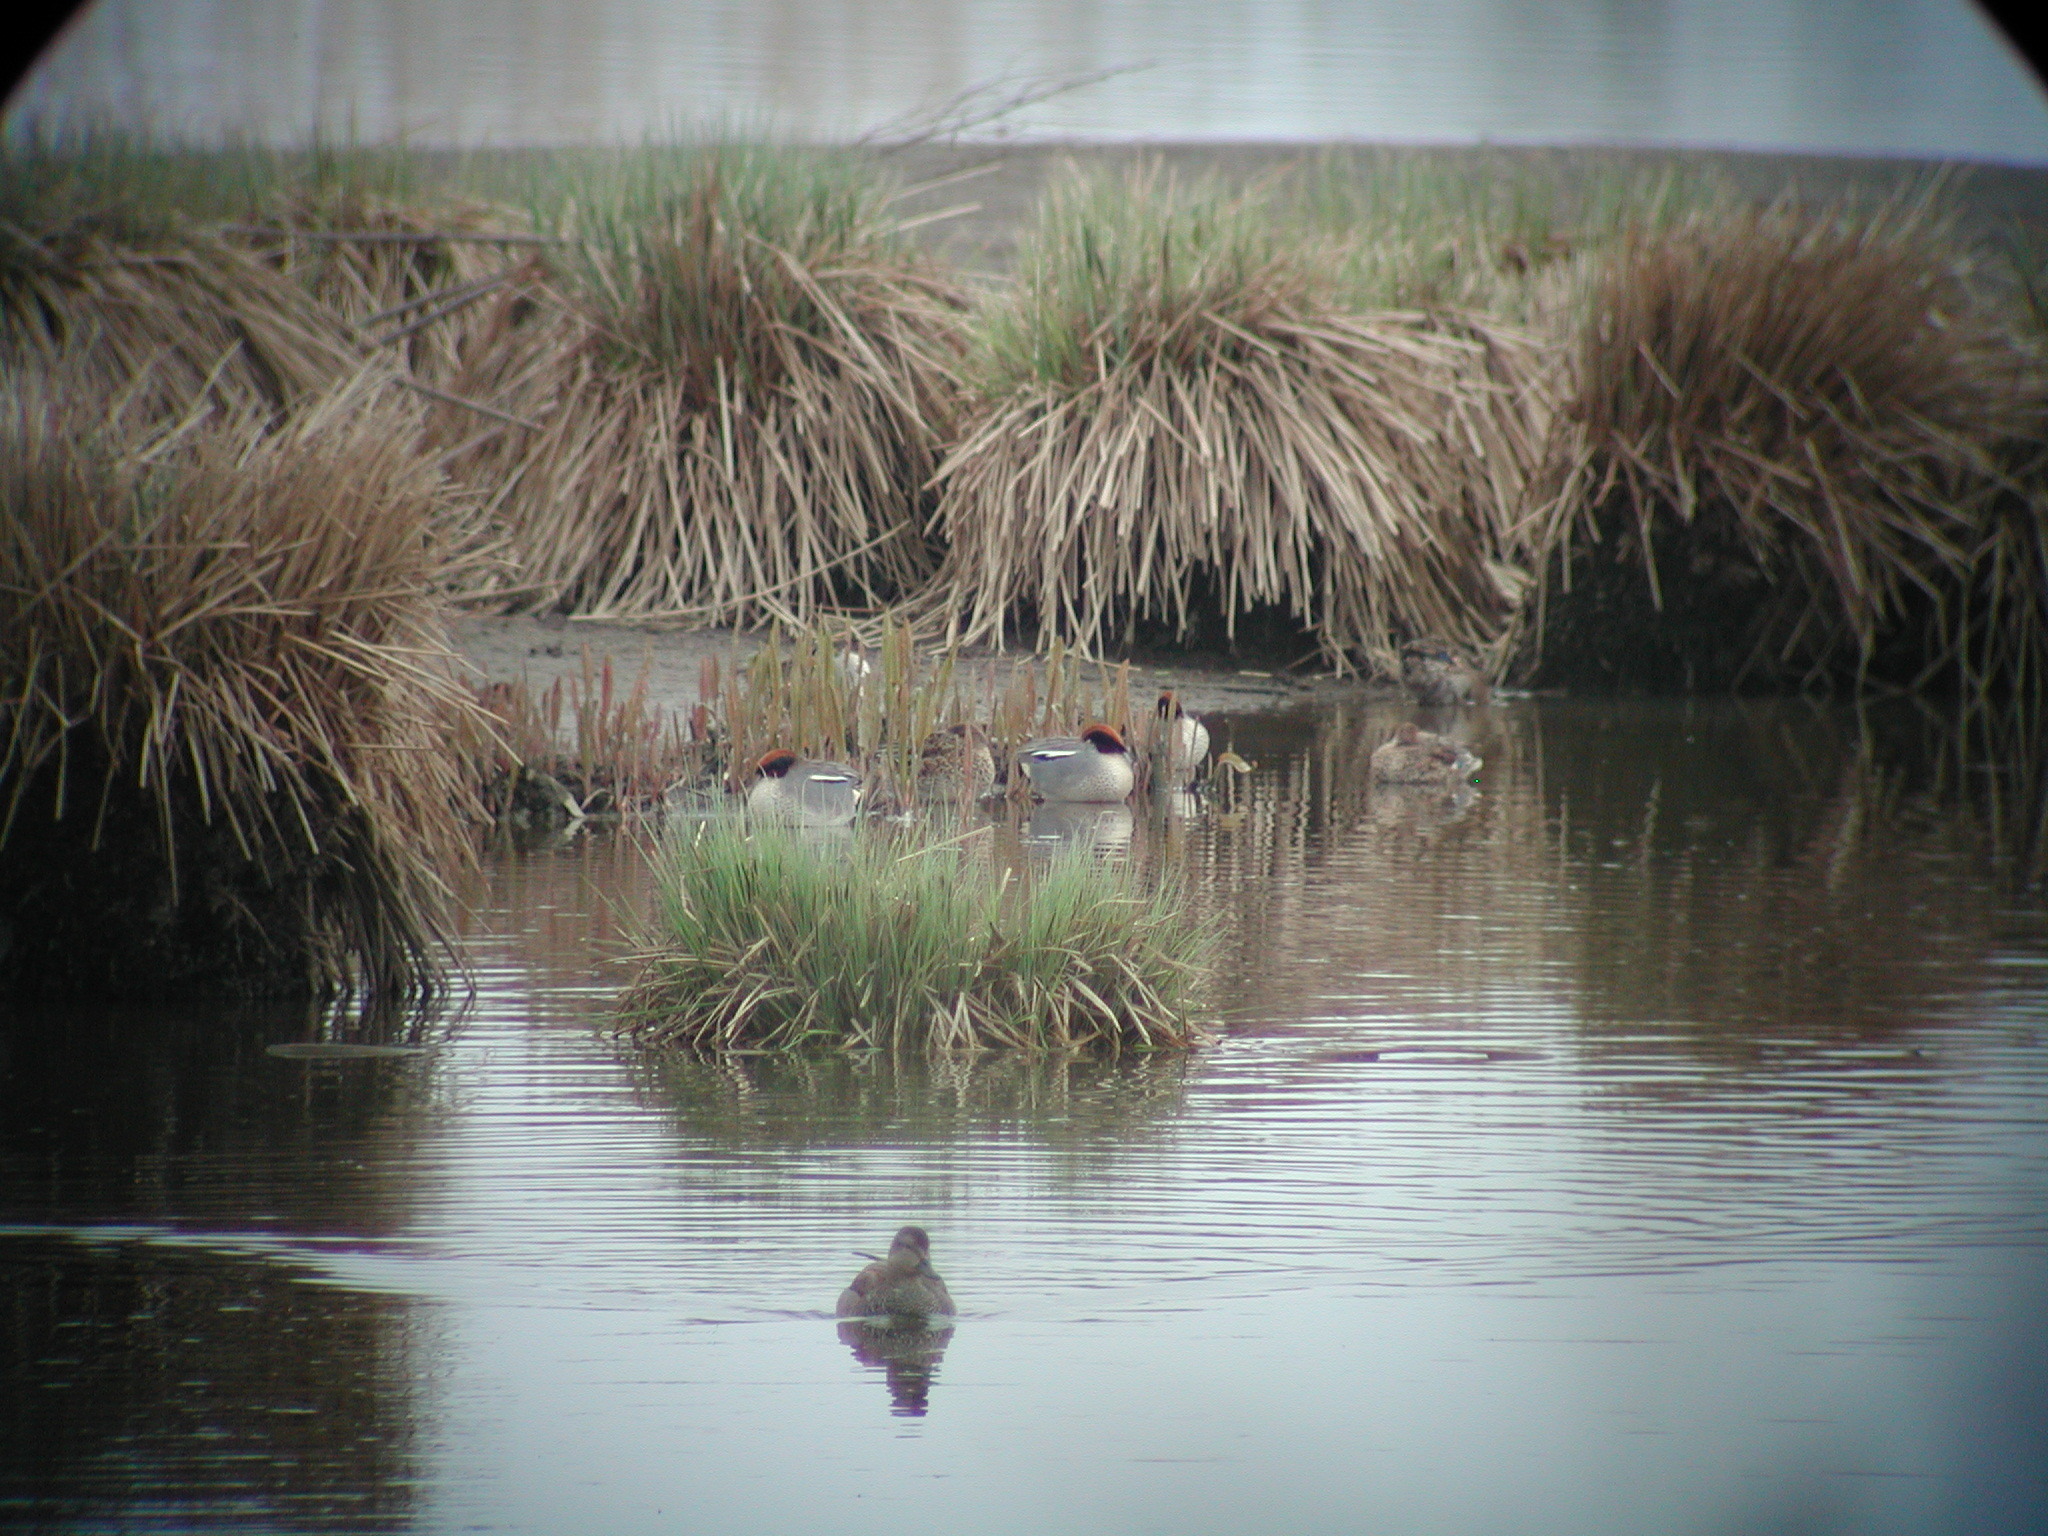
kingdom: Animalia
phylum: Chordata
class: Aves
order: Anseriformes
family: Anatidae
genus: Anas
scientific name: Anas crecca
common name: Eurasian teal
